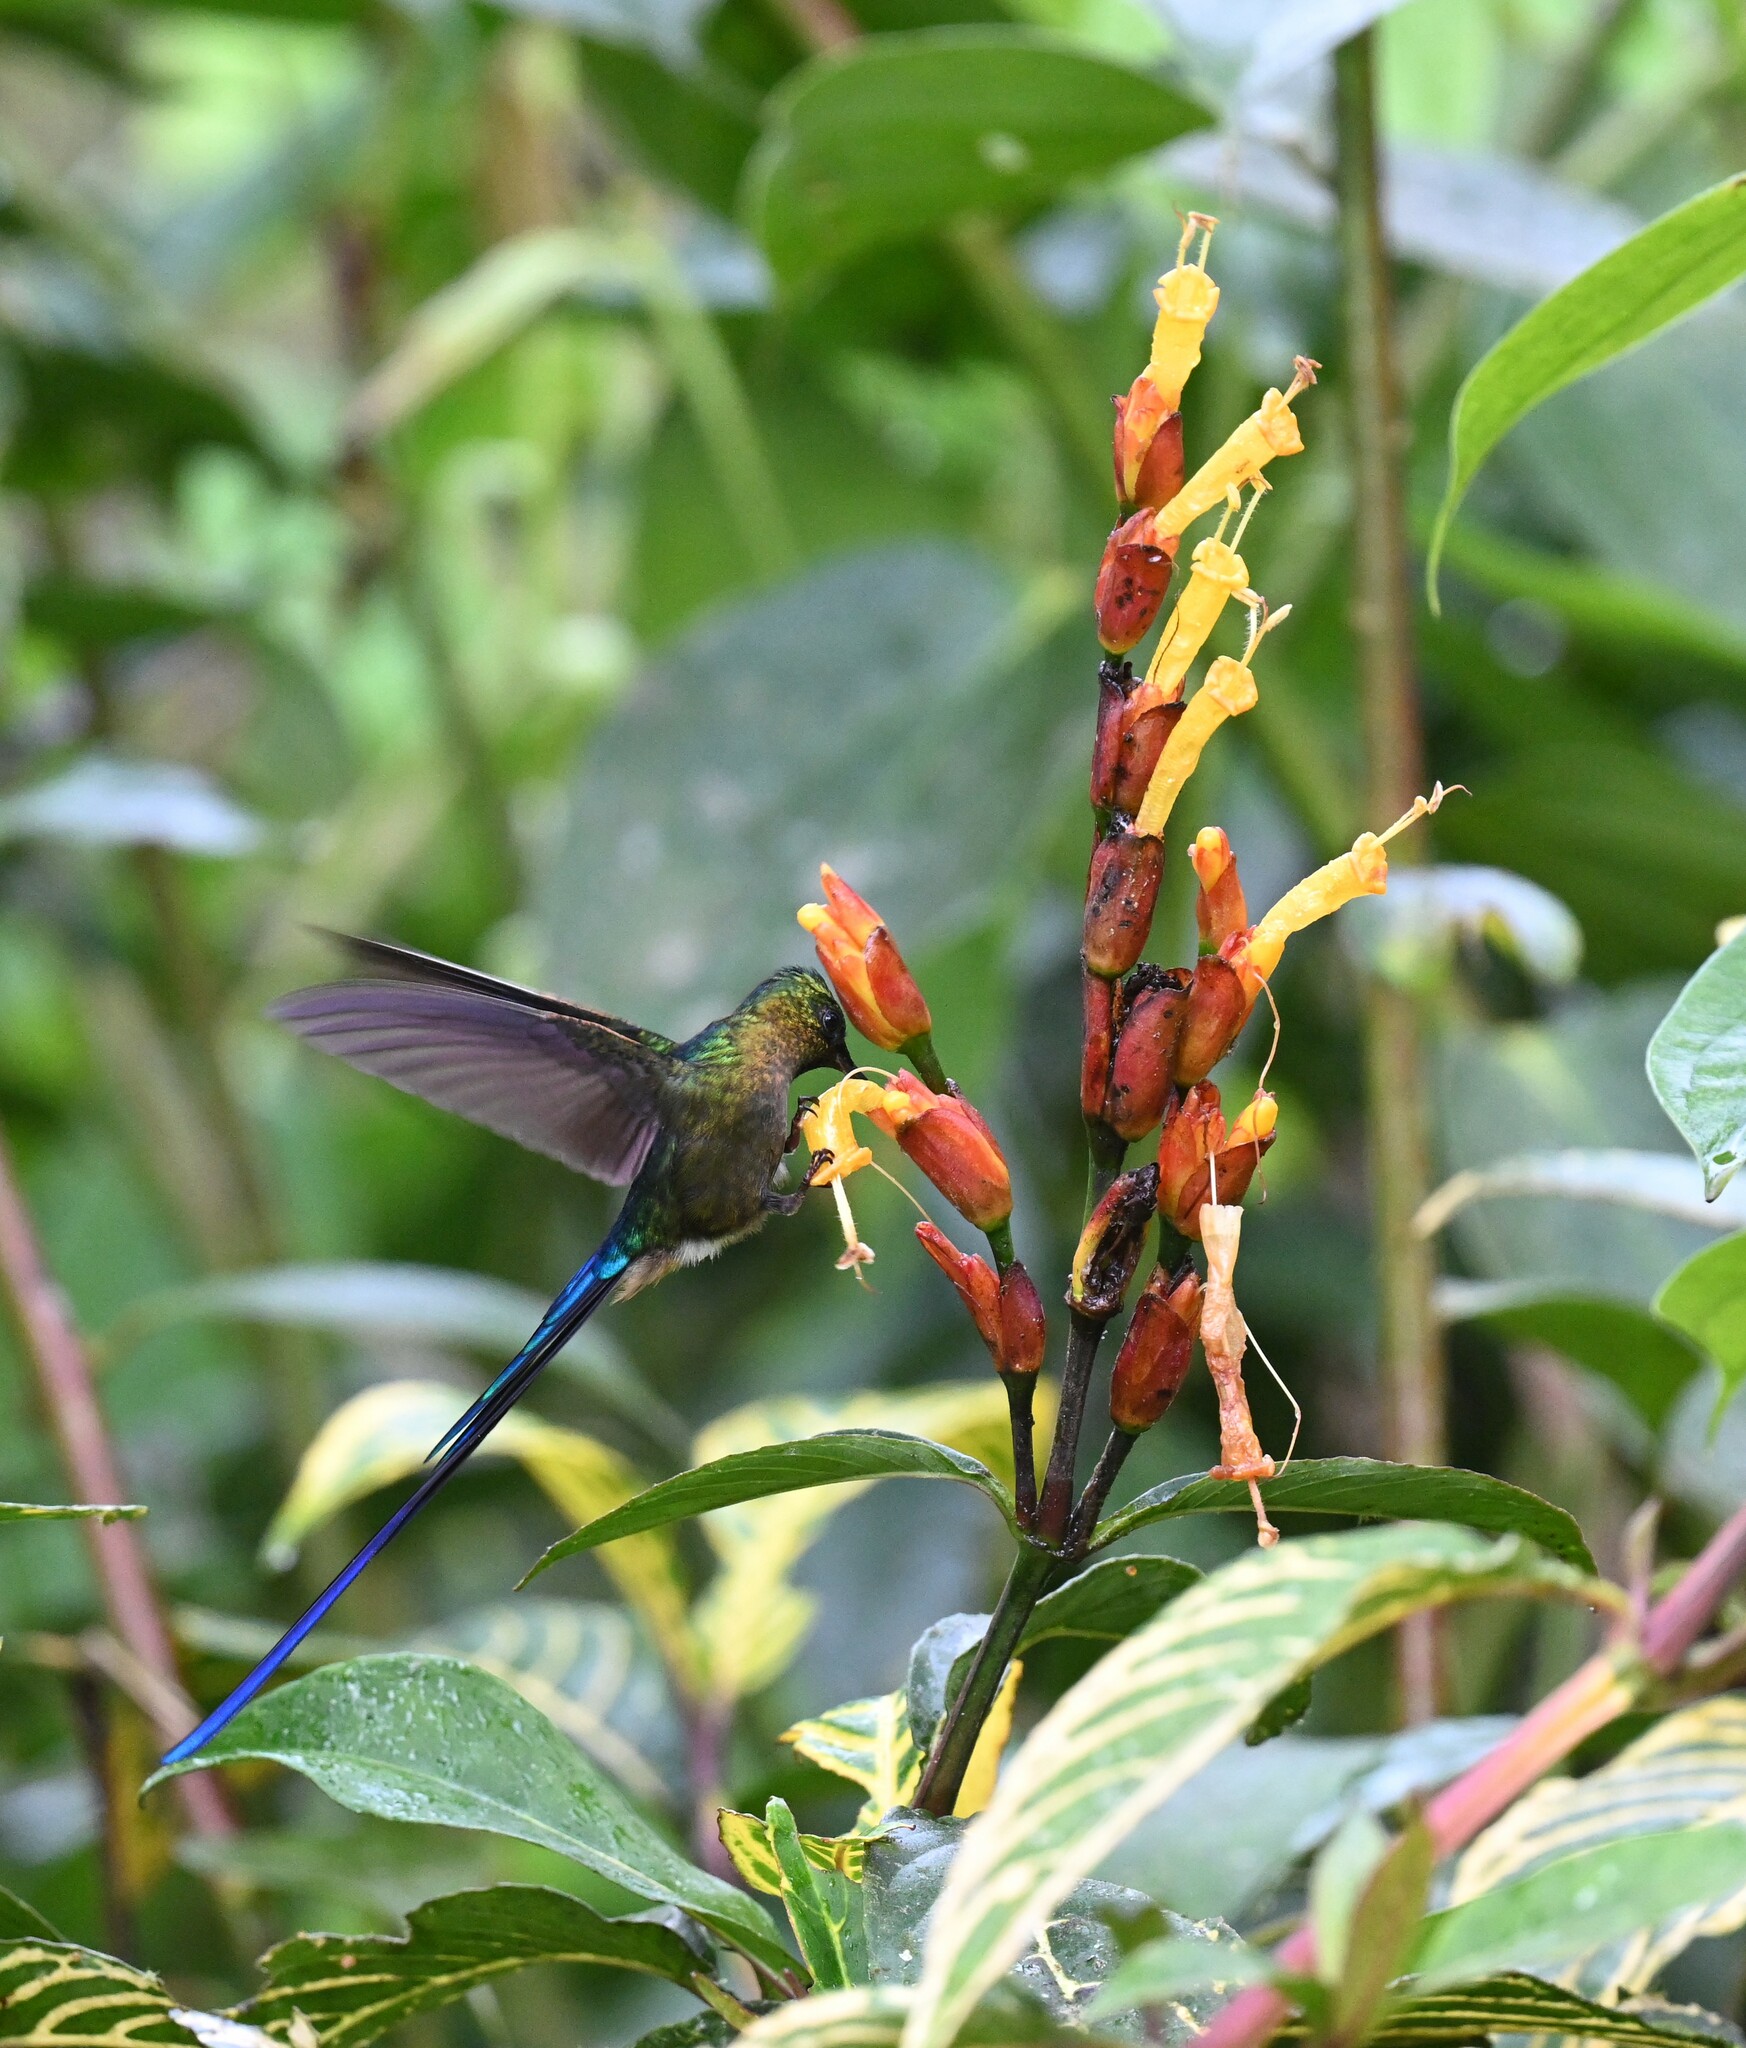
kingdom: Animalia
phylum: Chordata
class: Aves
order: Apodiformes
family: Trochilidae
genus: Aglaiocercus
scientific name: Aglaiocercus coelestis
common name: Violet-tailed sylph
